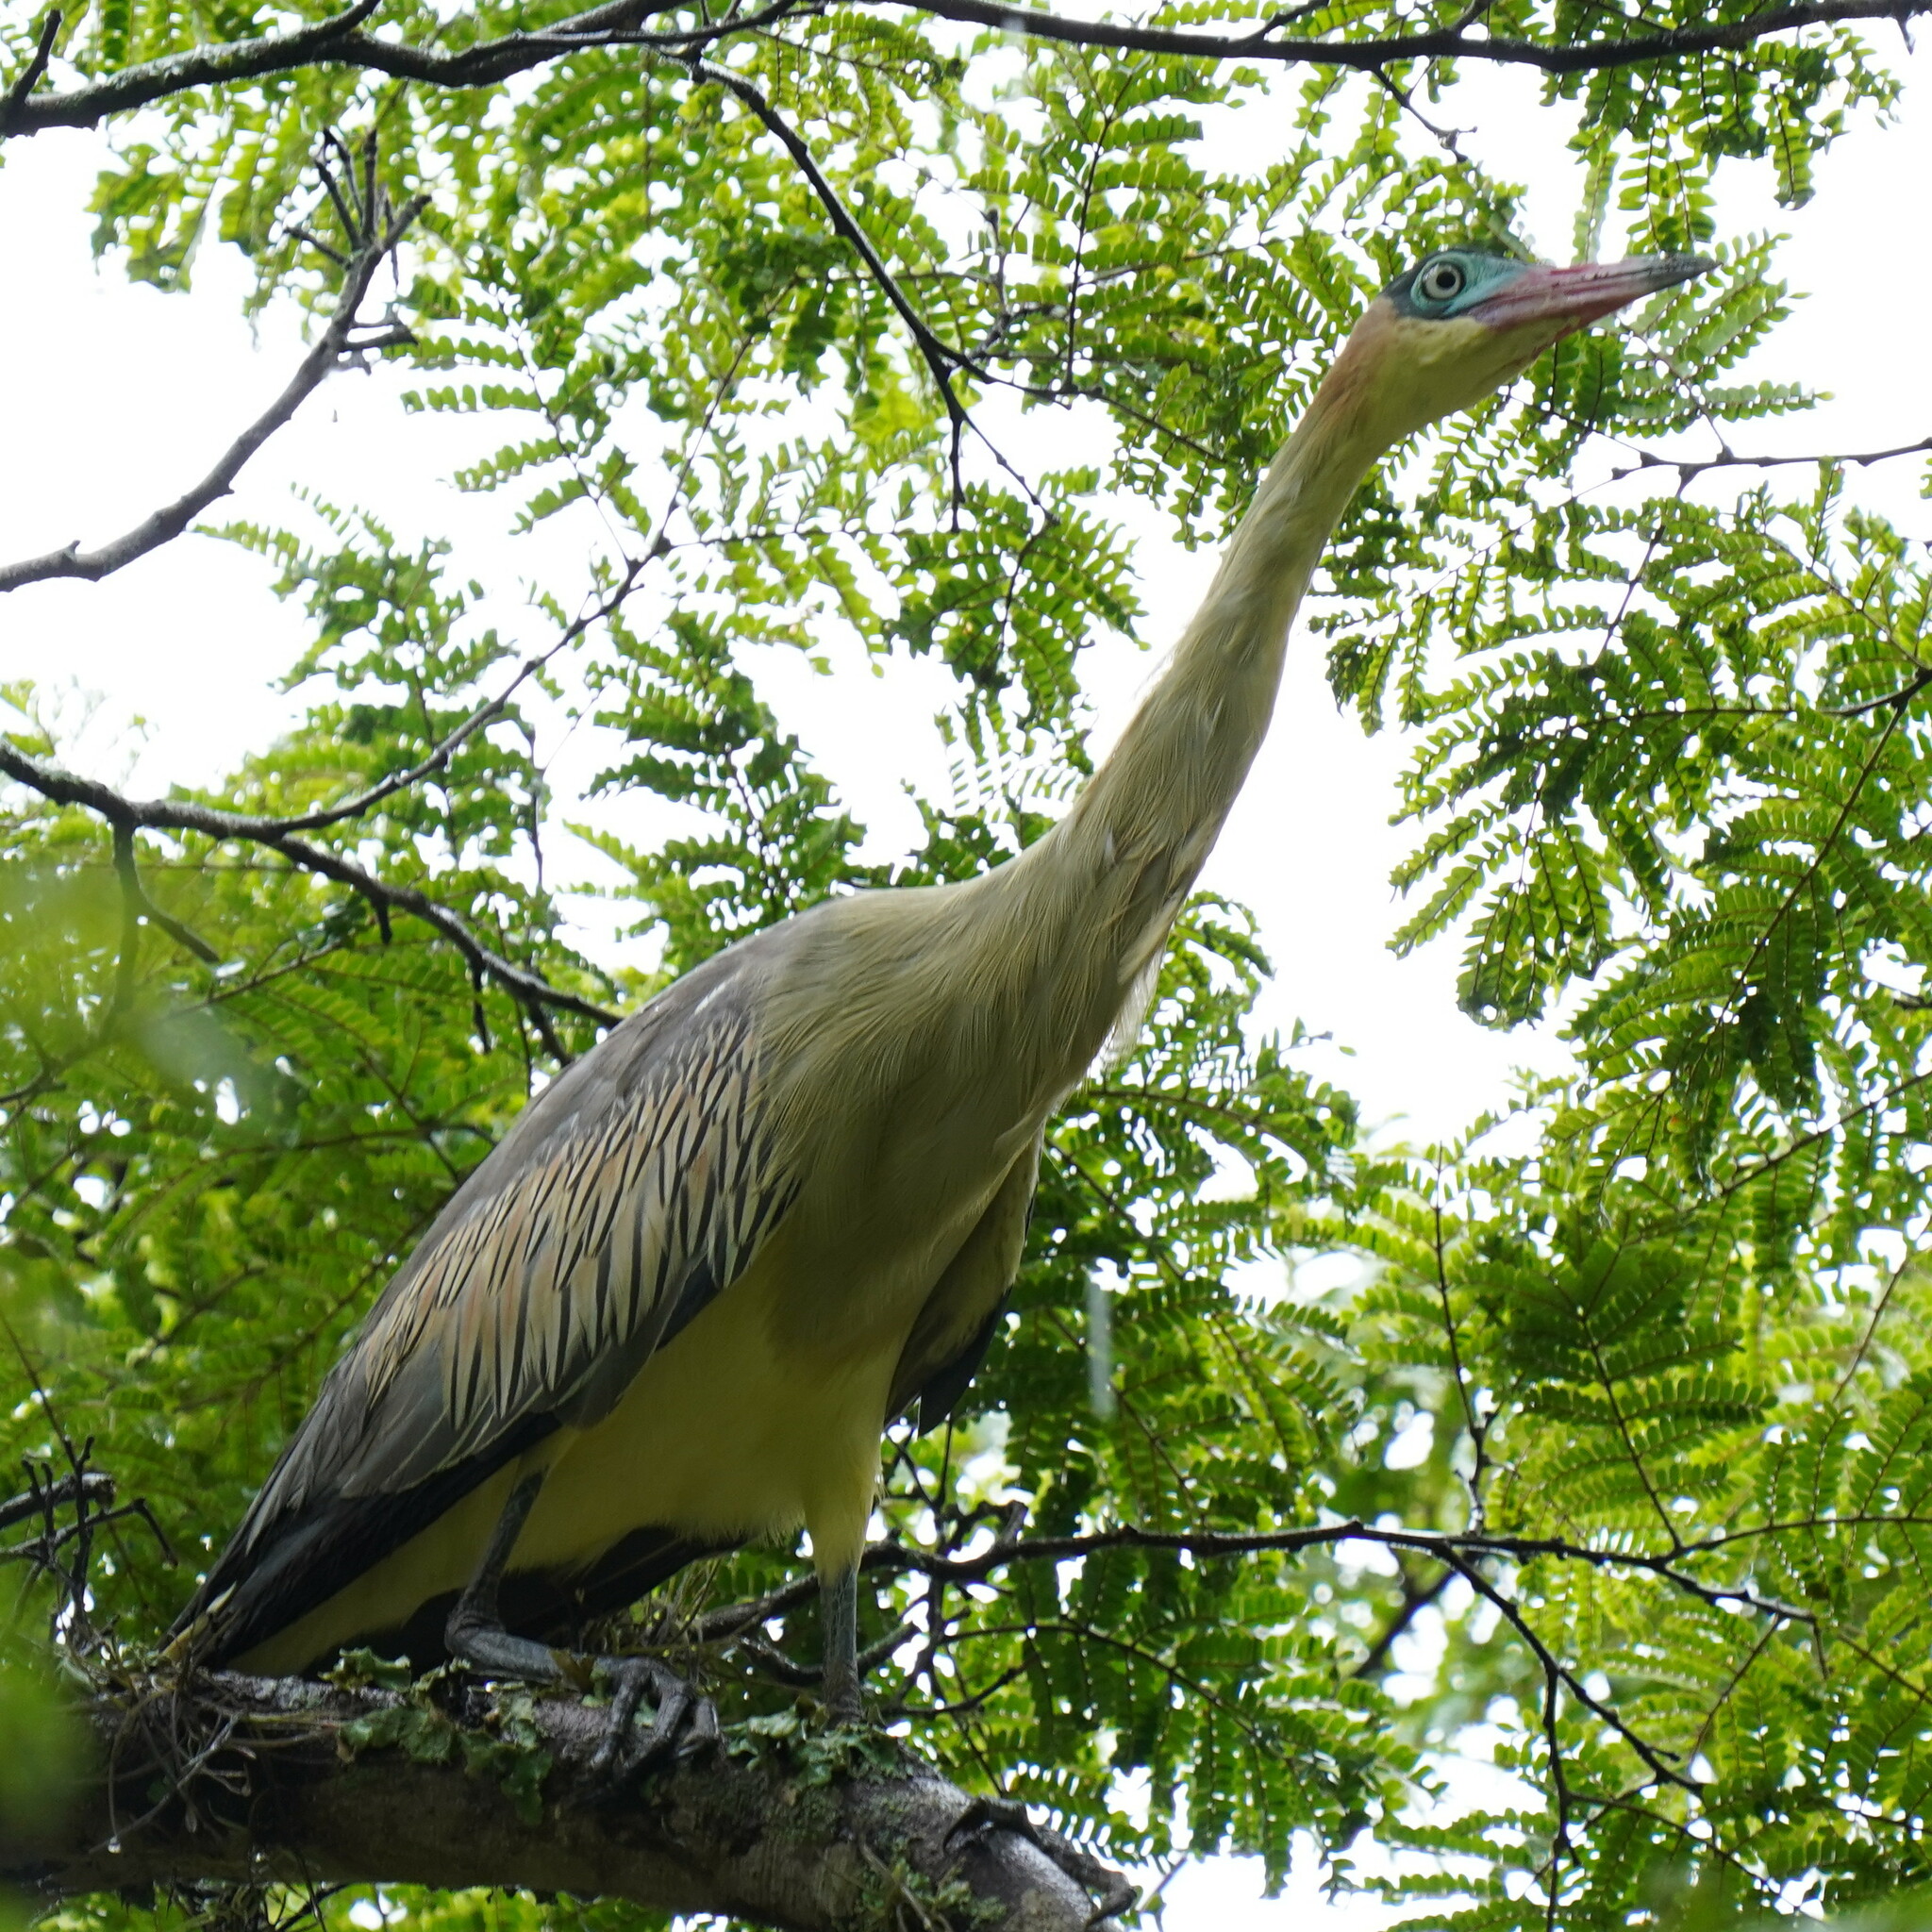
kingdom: Animalia
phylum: Chordata
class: Aves
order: Pelecaniformes
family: Ardeidae
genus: Syrigma
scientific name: Syrigma sibilatrix
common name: Whistling heron
